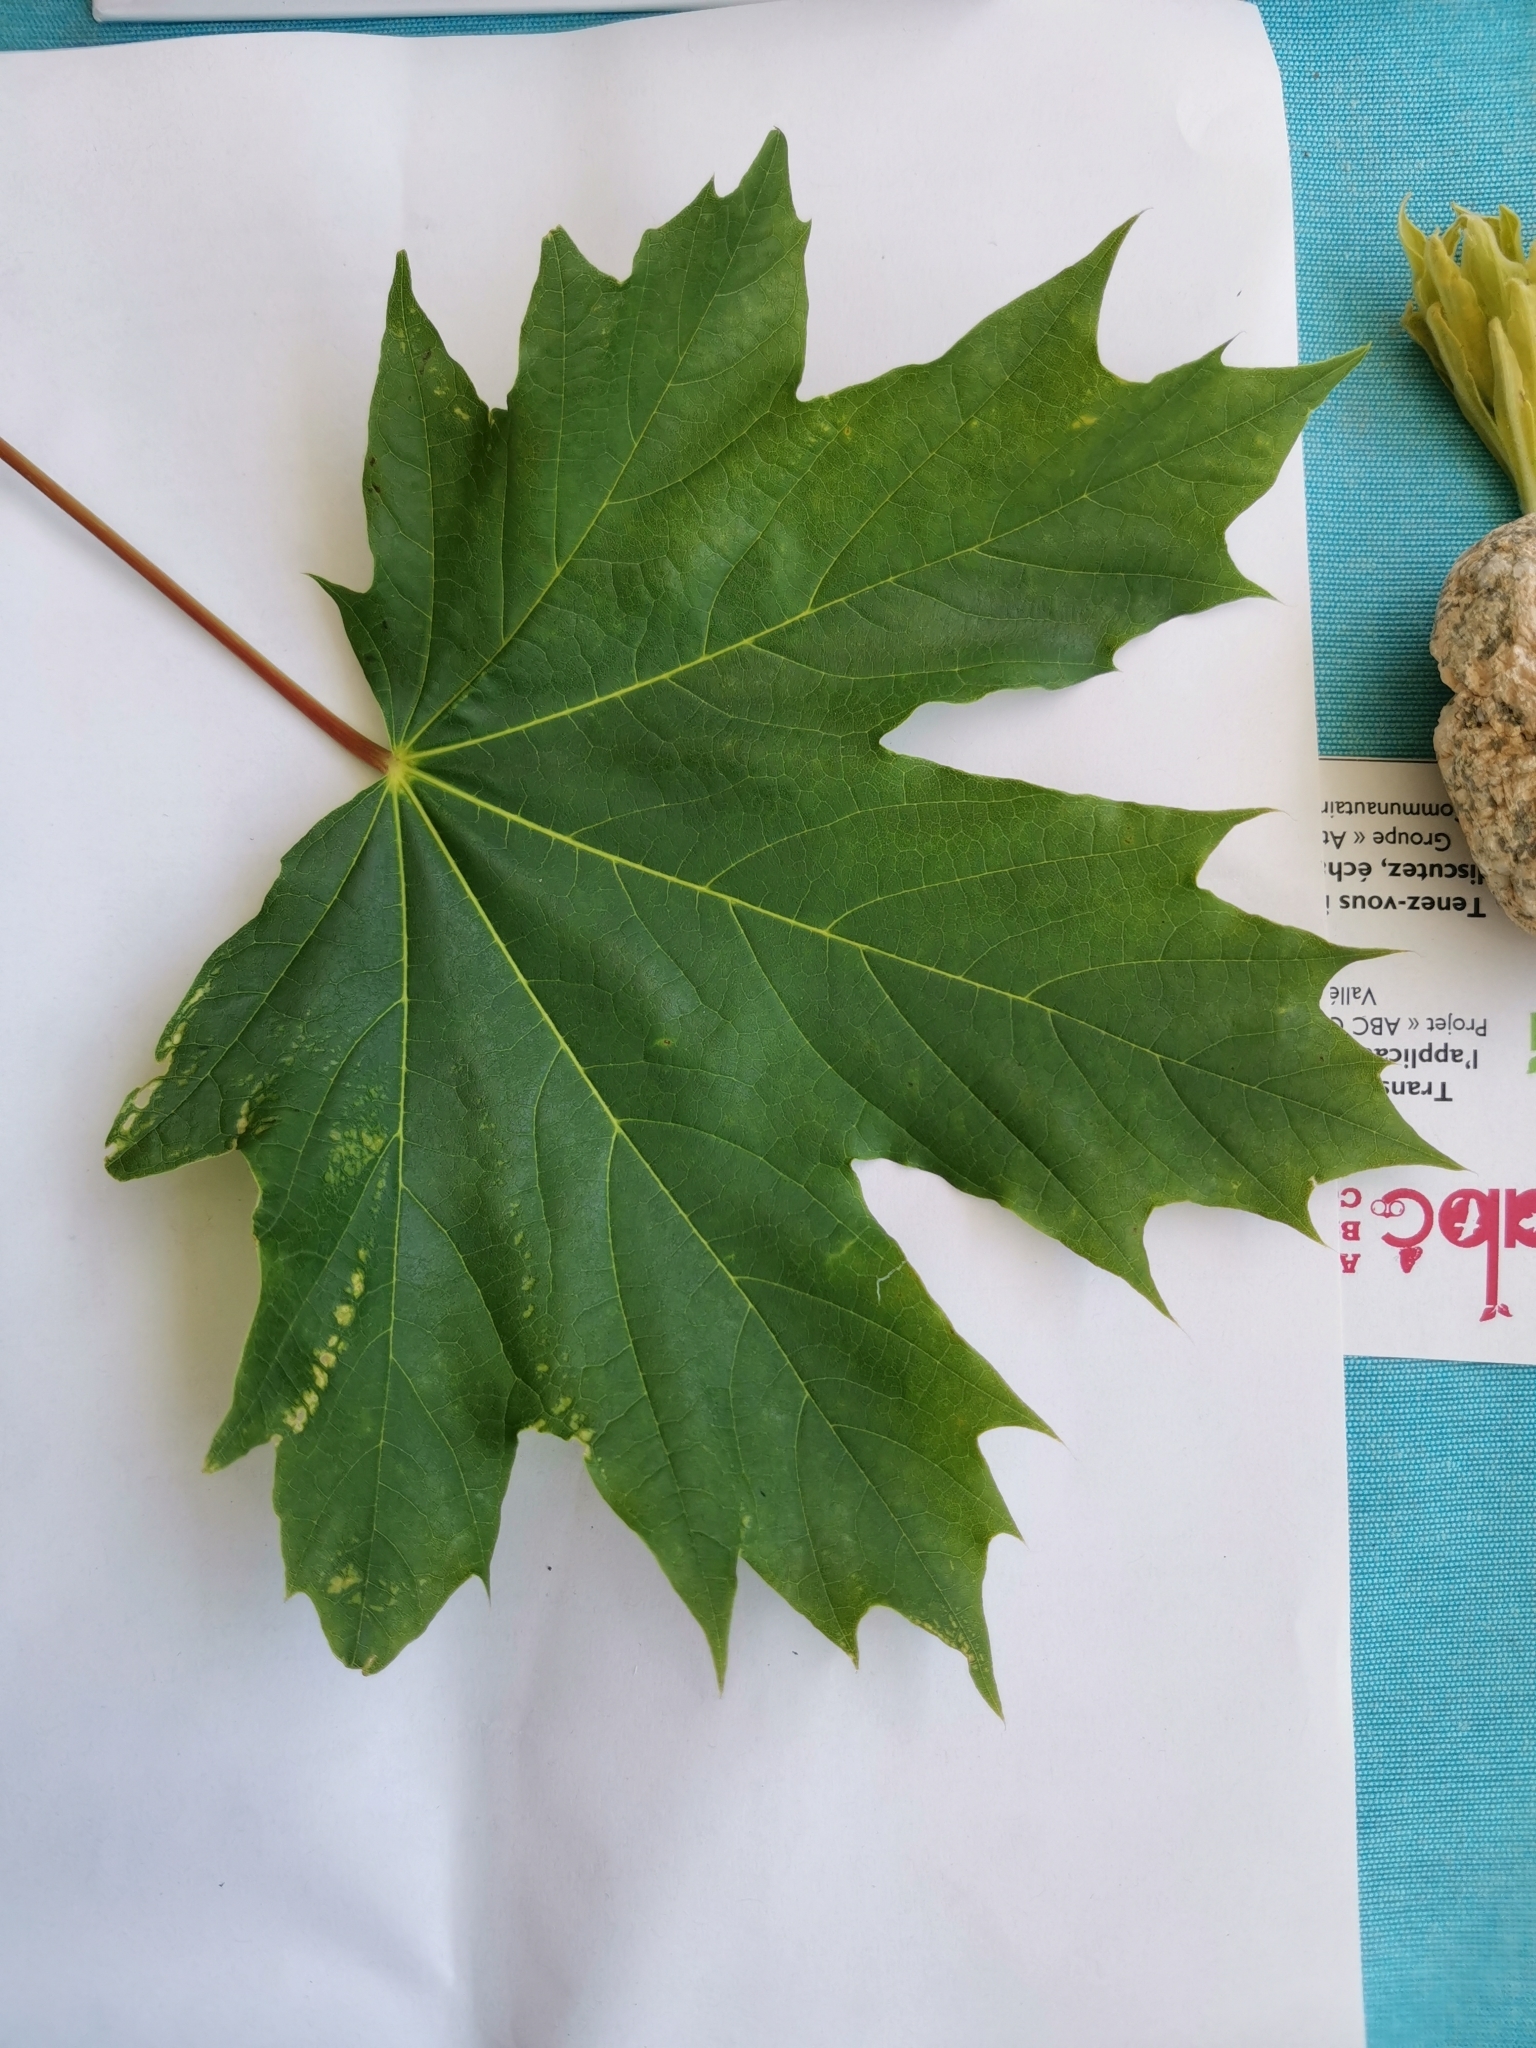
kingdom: Plantae
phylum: Tracheophyta
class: Magnoliopsida
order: Sapindales
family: Sapindaceae
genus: Acer
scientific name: Acer platanoides
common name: Norway maple
